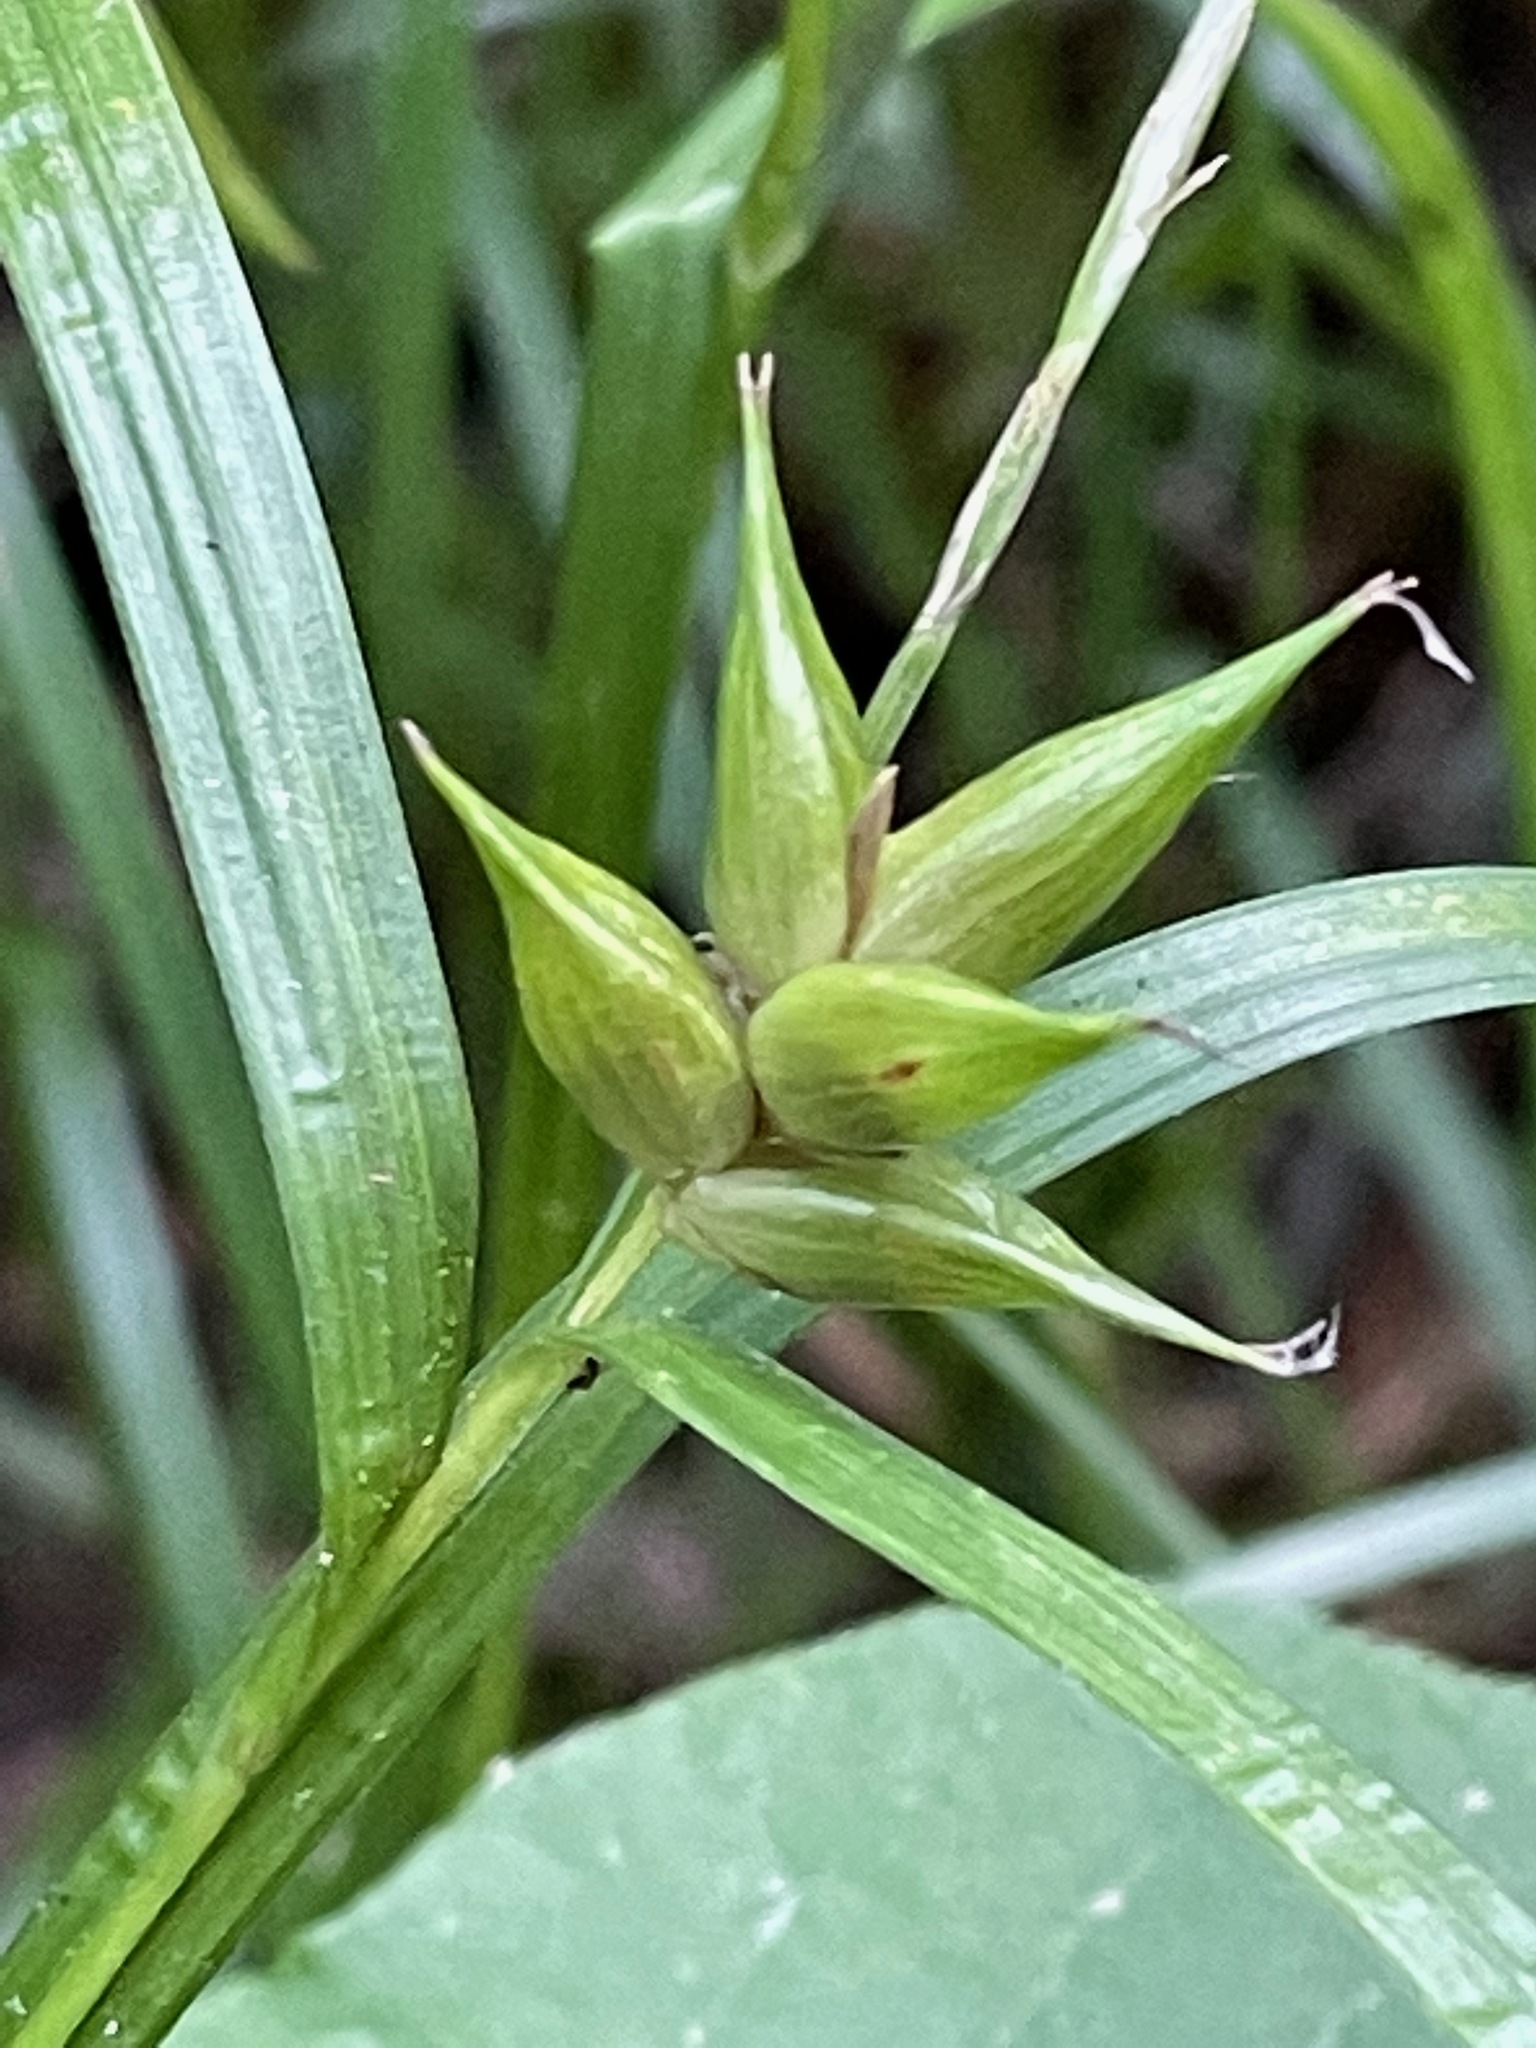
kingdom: Plantae
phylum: Tracheophyta
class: Liliopsida
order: Poales
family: Cyperaceae
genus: Carex
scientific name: Carex intumescens
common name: Greater bladder sedge
